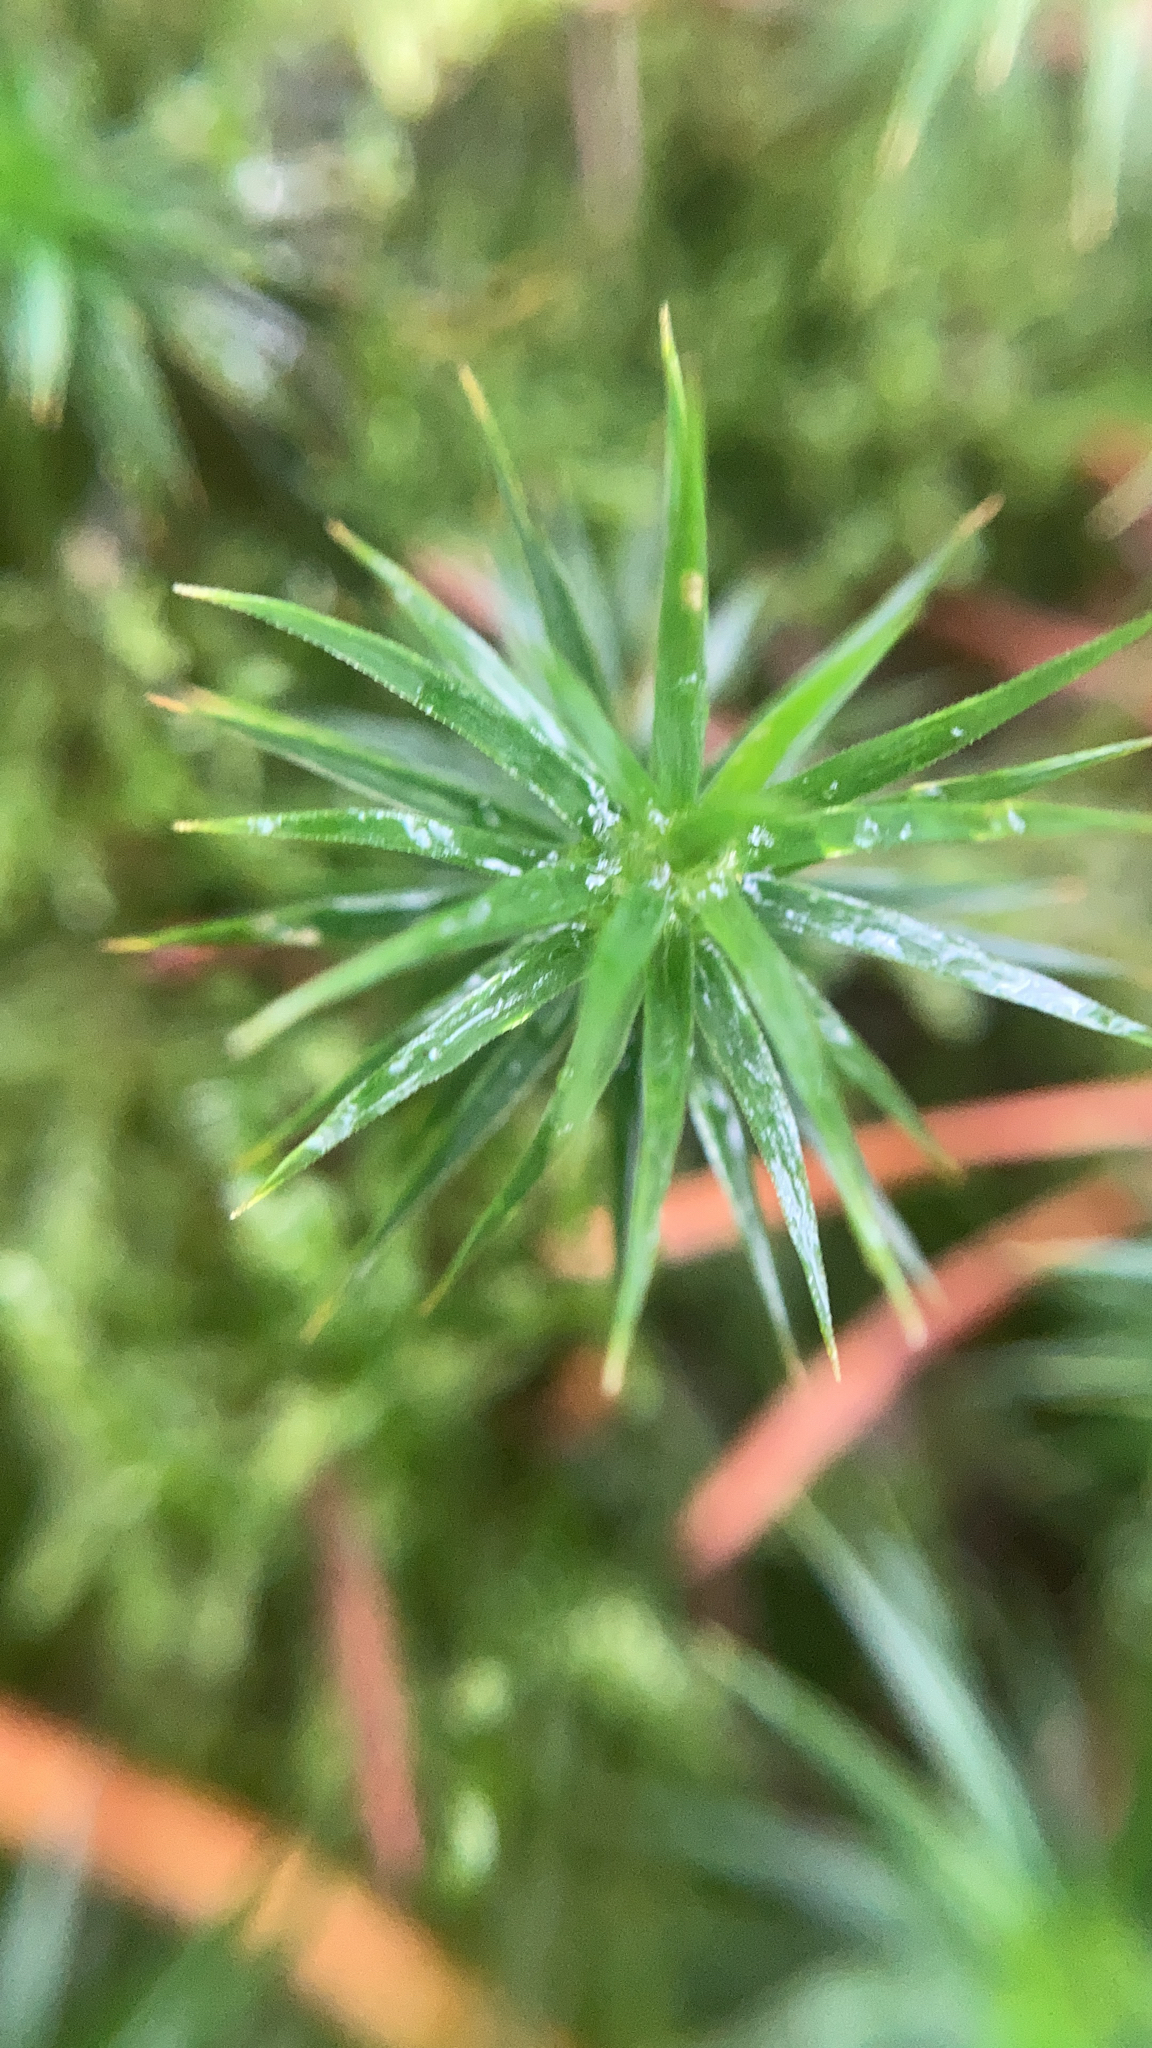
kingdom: Plantae
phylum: Bryophyta
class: Polytrichopsida
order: Polytrichales
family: Polytrichaceae
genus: Polytrichum
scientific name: Polytrichum formosum
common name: Bank haircap moss
